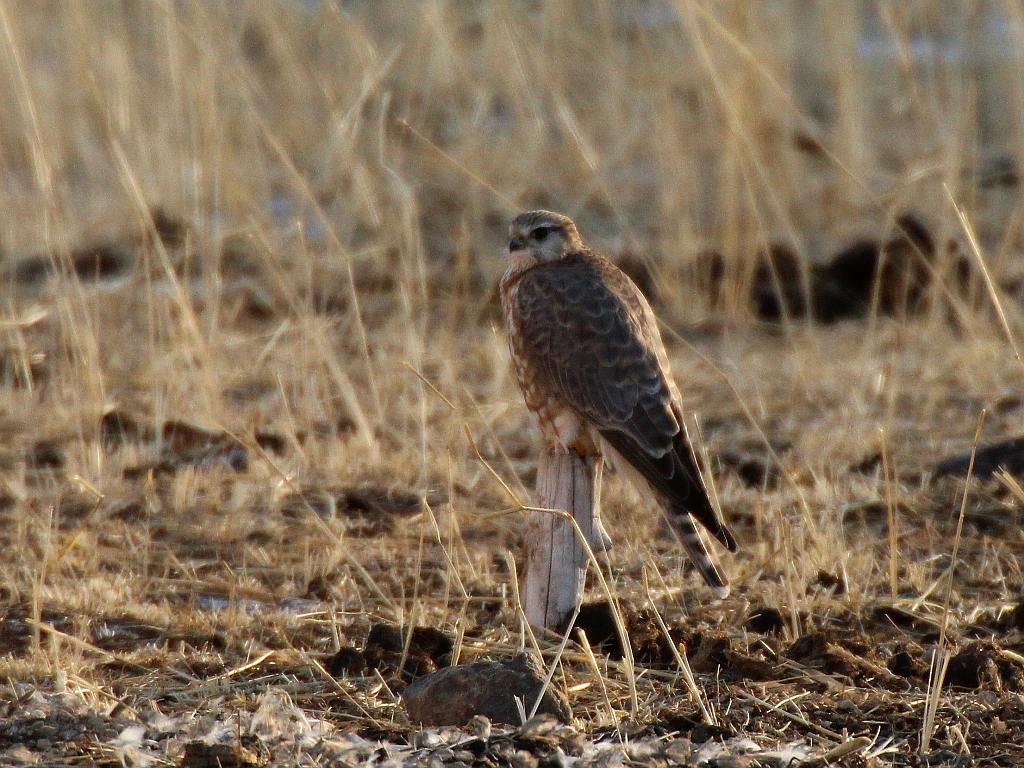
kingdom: Animalia
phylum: Chordata
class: Aves
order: Falconiformes
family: Falconidae
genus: Falco
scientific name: Falco columbarius
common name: Merlin
